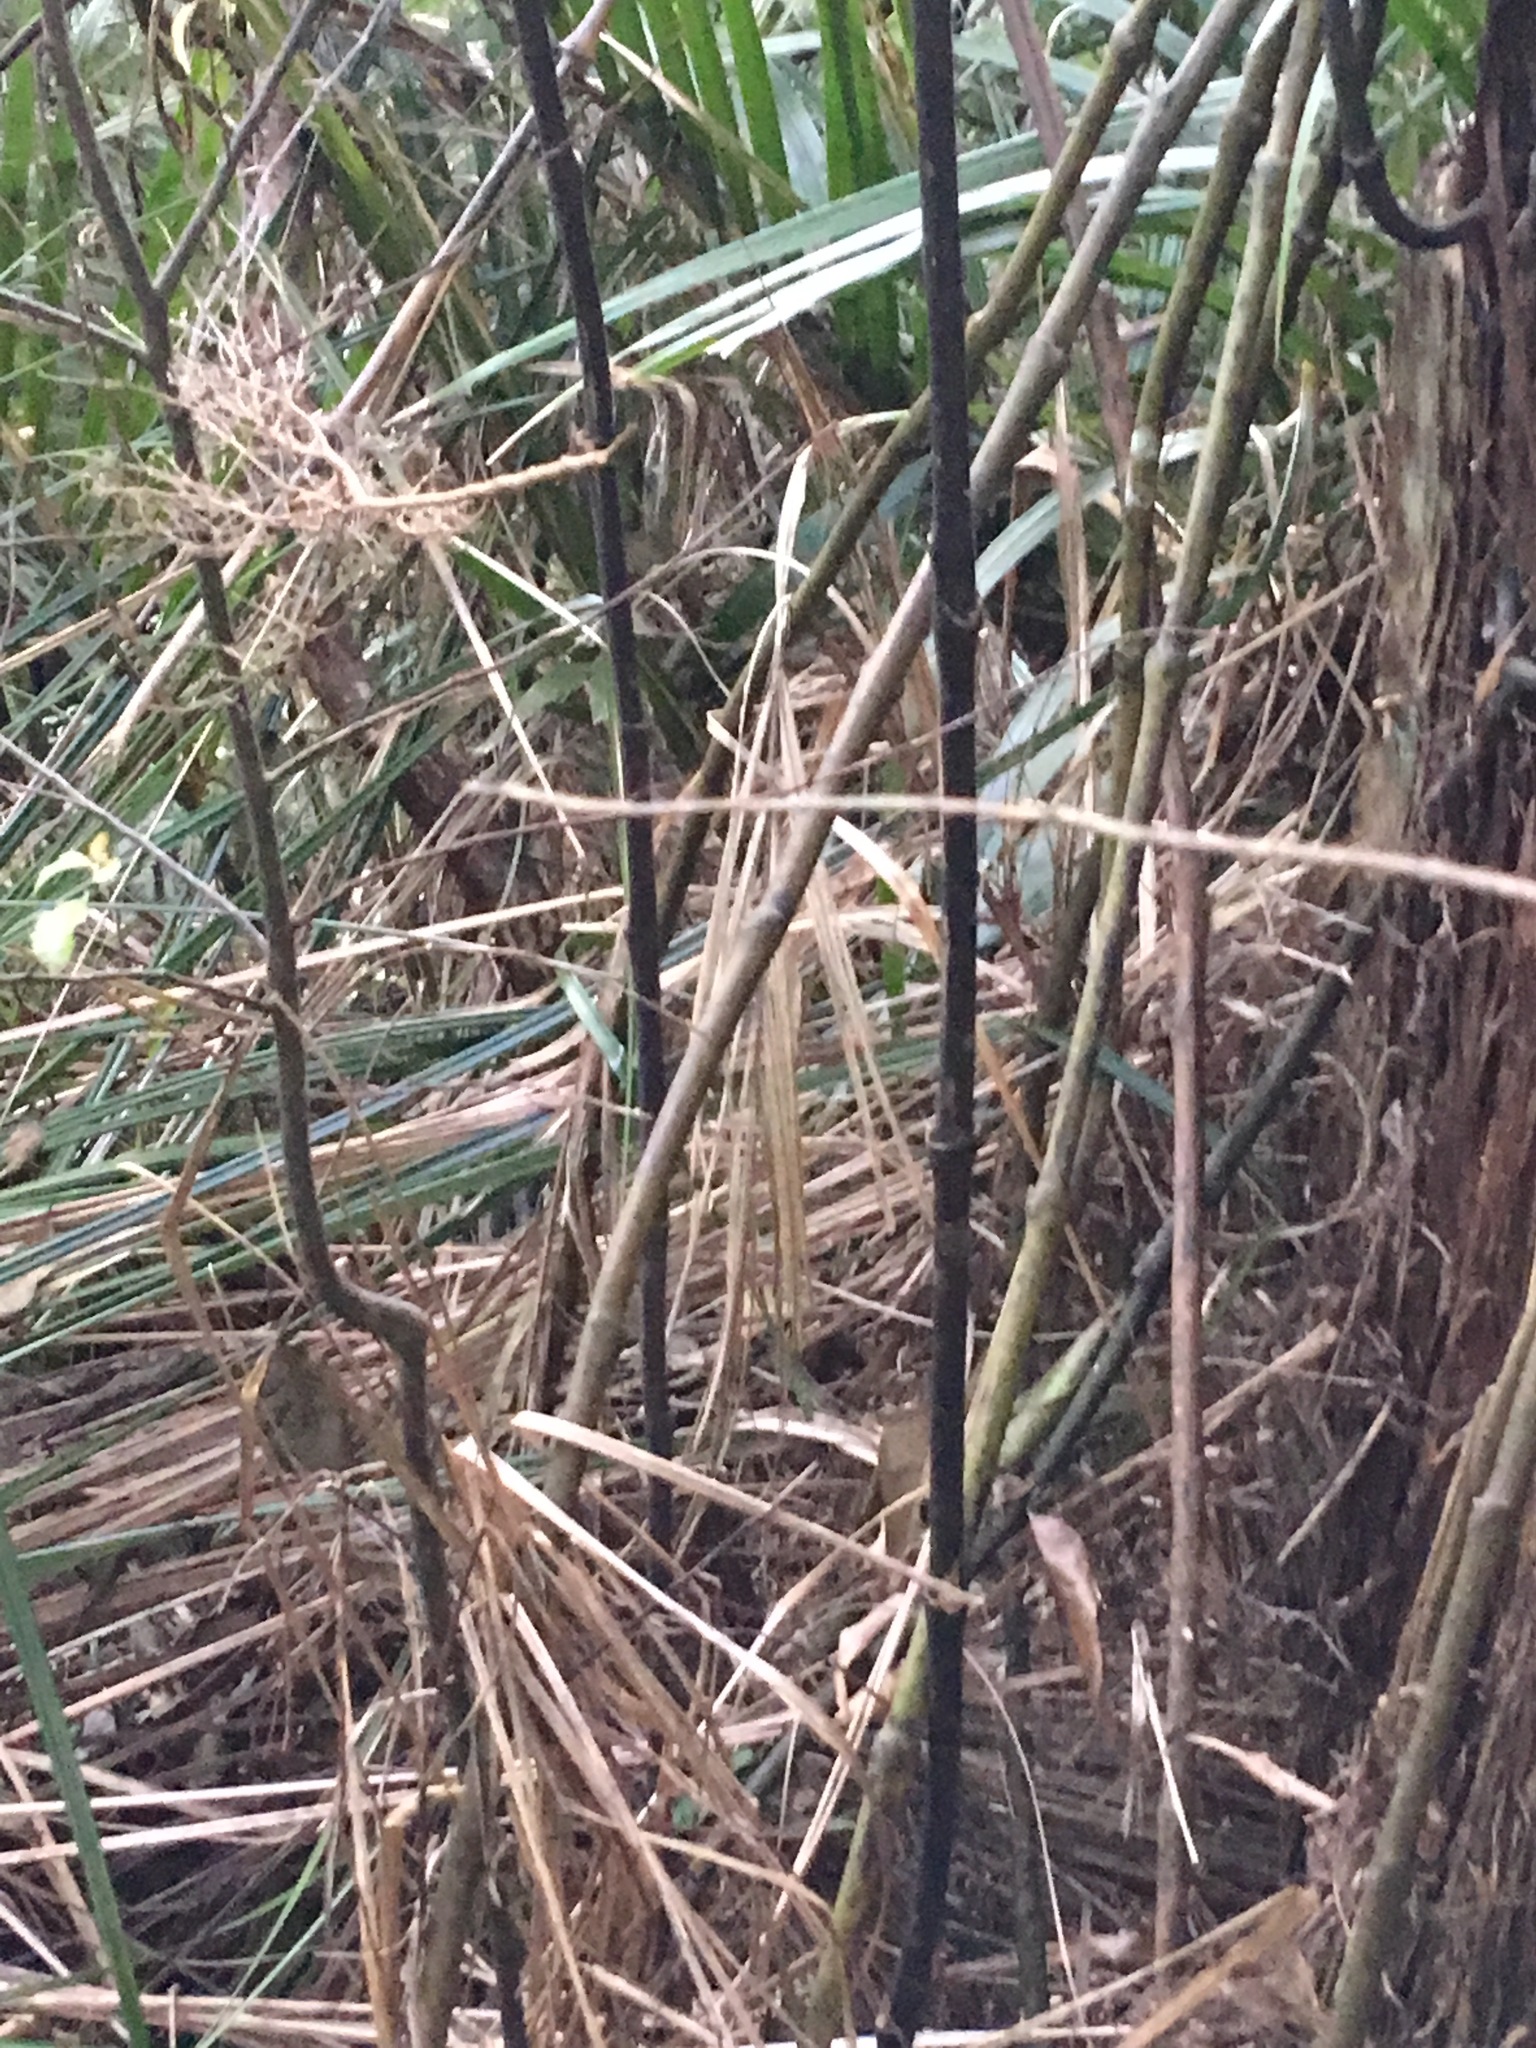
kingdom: Plantae
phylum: Tracheophyta
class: Liliopsida
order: Liliales
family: Ripogonaceae
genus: Ripogonum
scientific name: Ripogonum scandens
